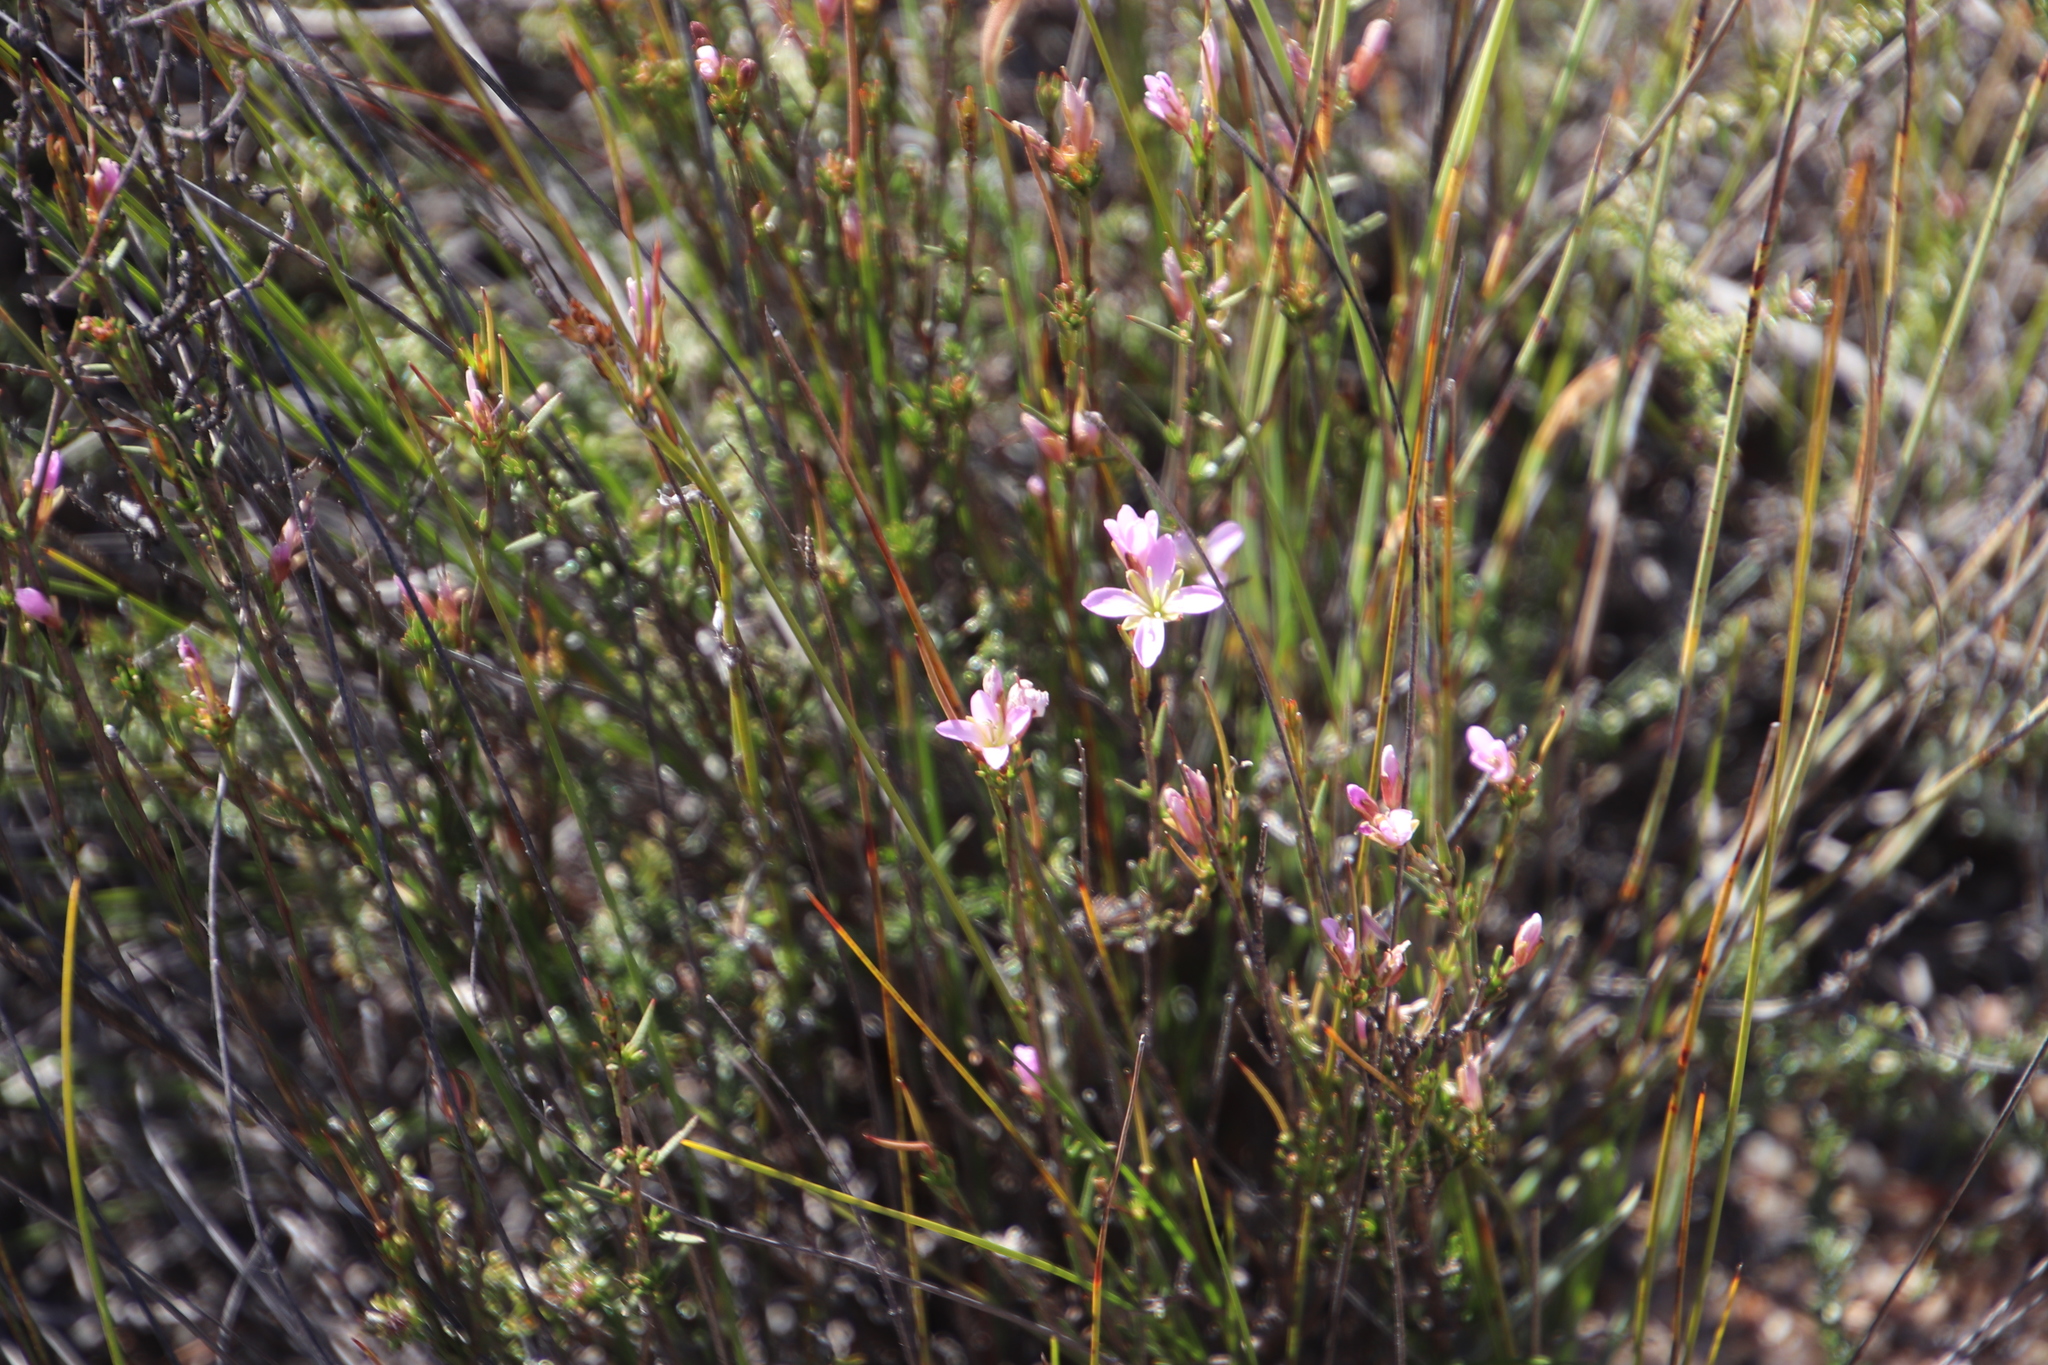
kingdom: Plantae
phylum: Tracheophyta
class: Magnoliopsida
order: Brassicales
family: Brassicaceae
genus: Heliophila
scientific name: Heliophila scoparia
